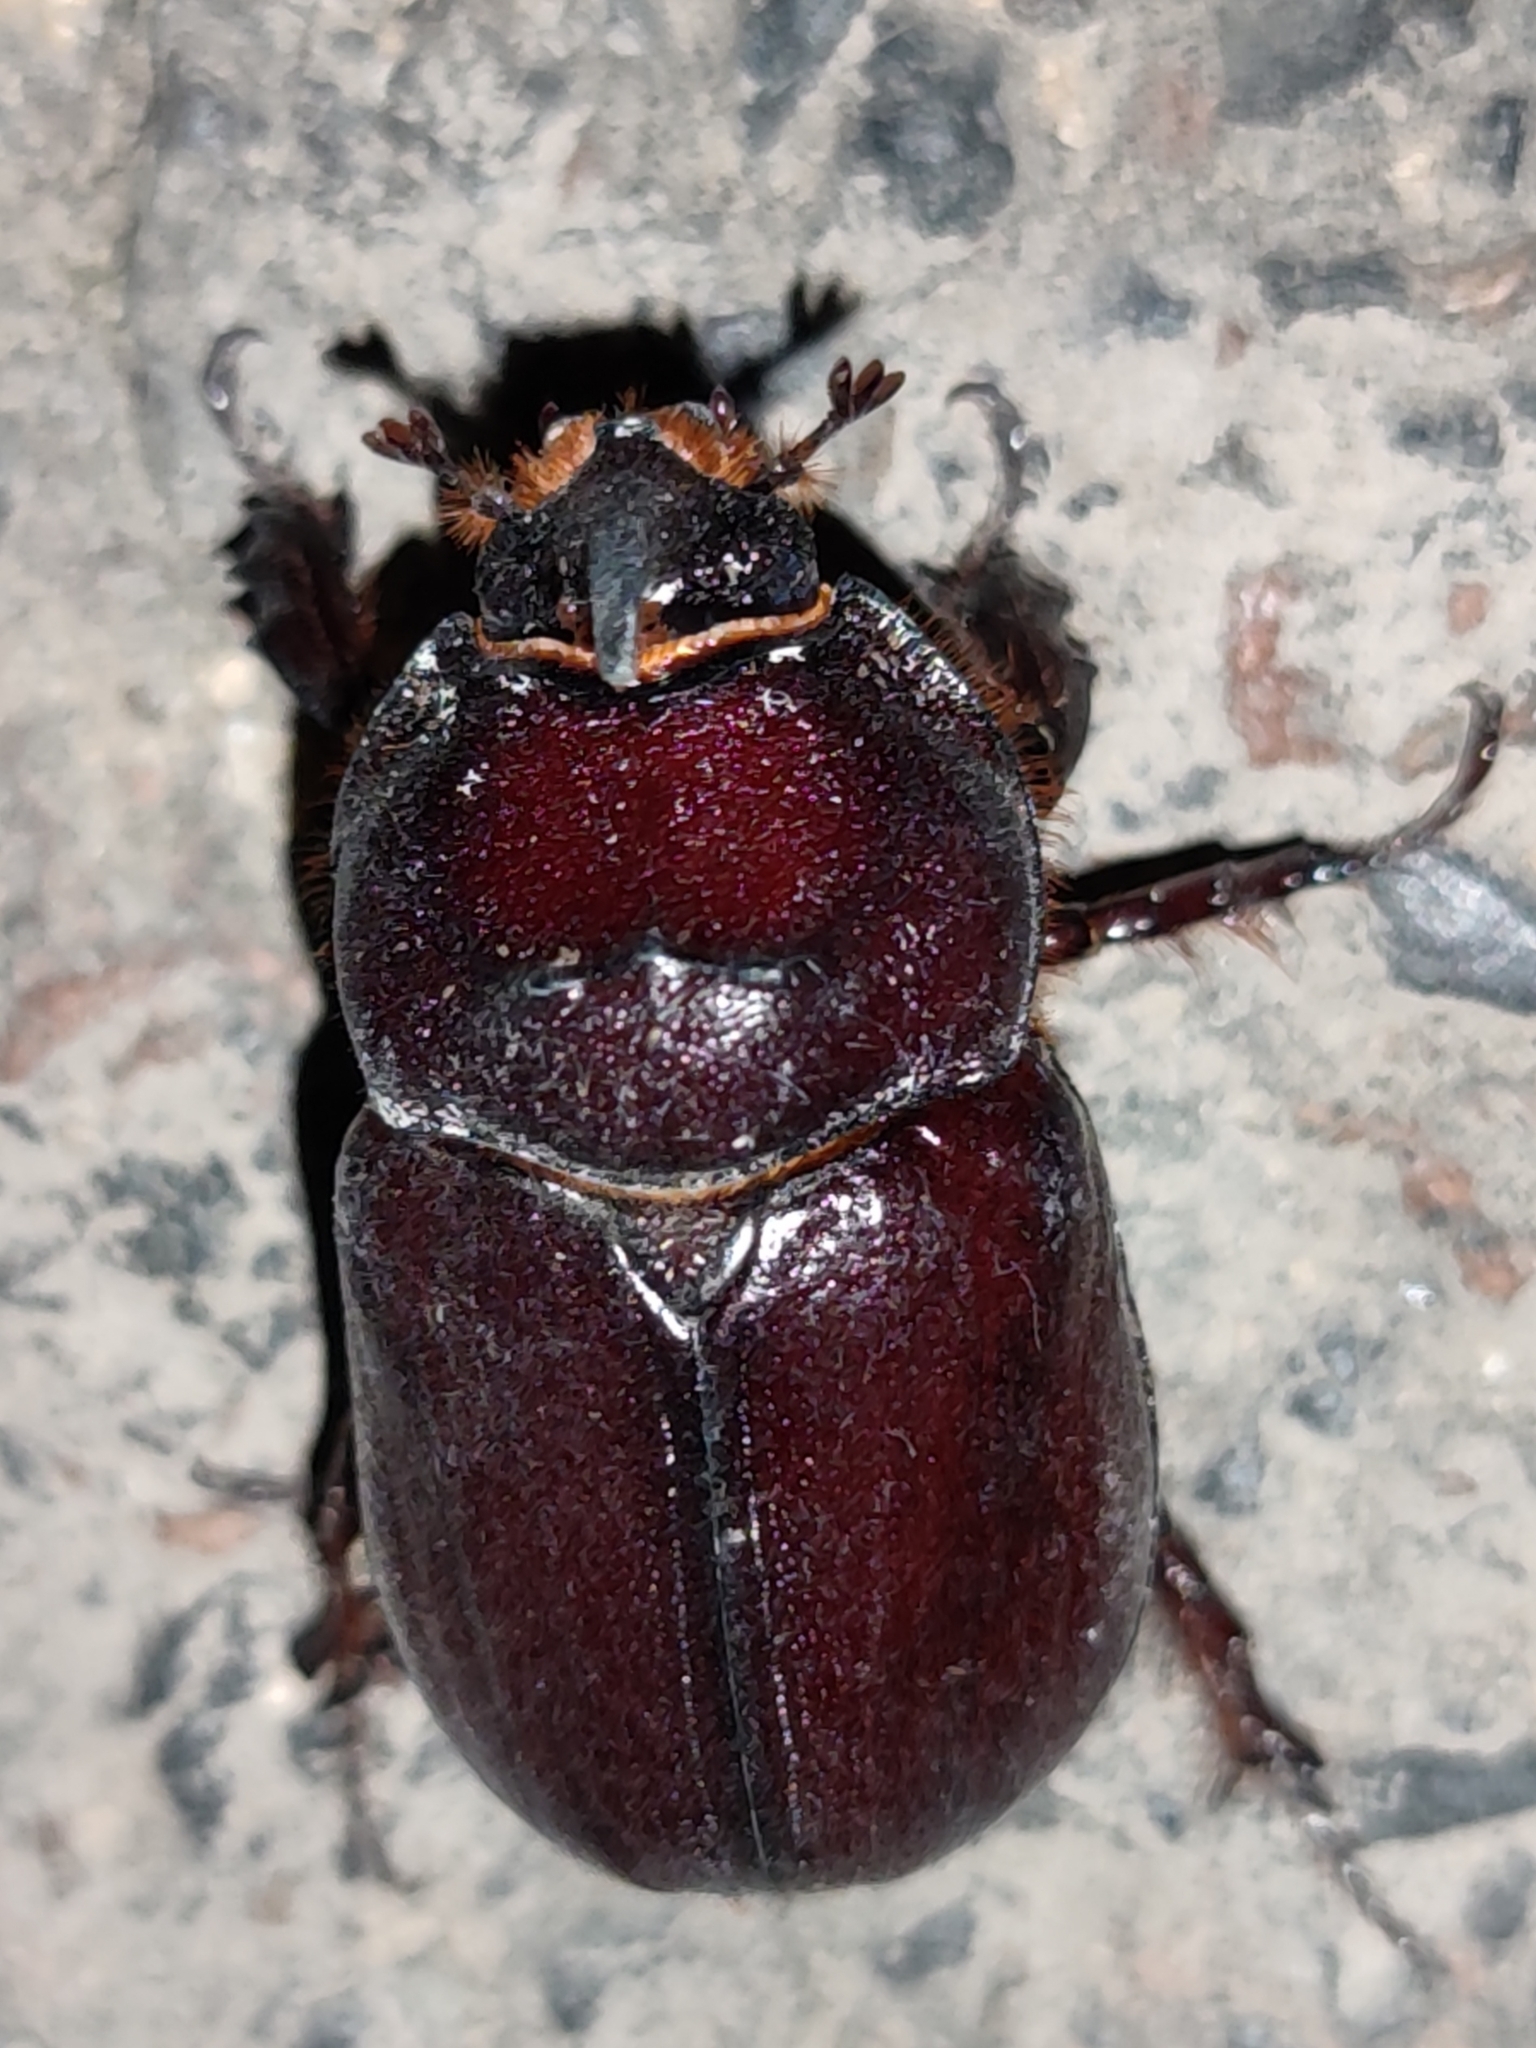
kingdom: Animalia
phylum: Arthropoda
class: Insecta
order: Coleoptera
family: Scarabaeidae
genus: Oryctes
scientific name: Oryctes nasicornis
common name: European rhinoceros beetle
